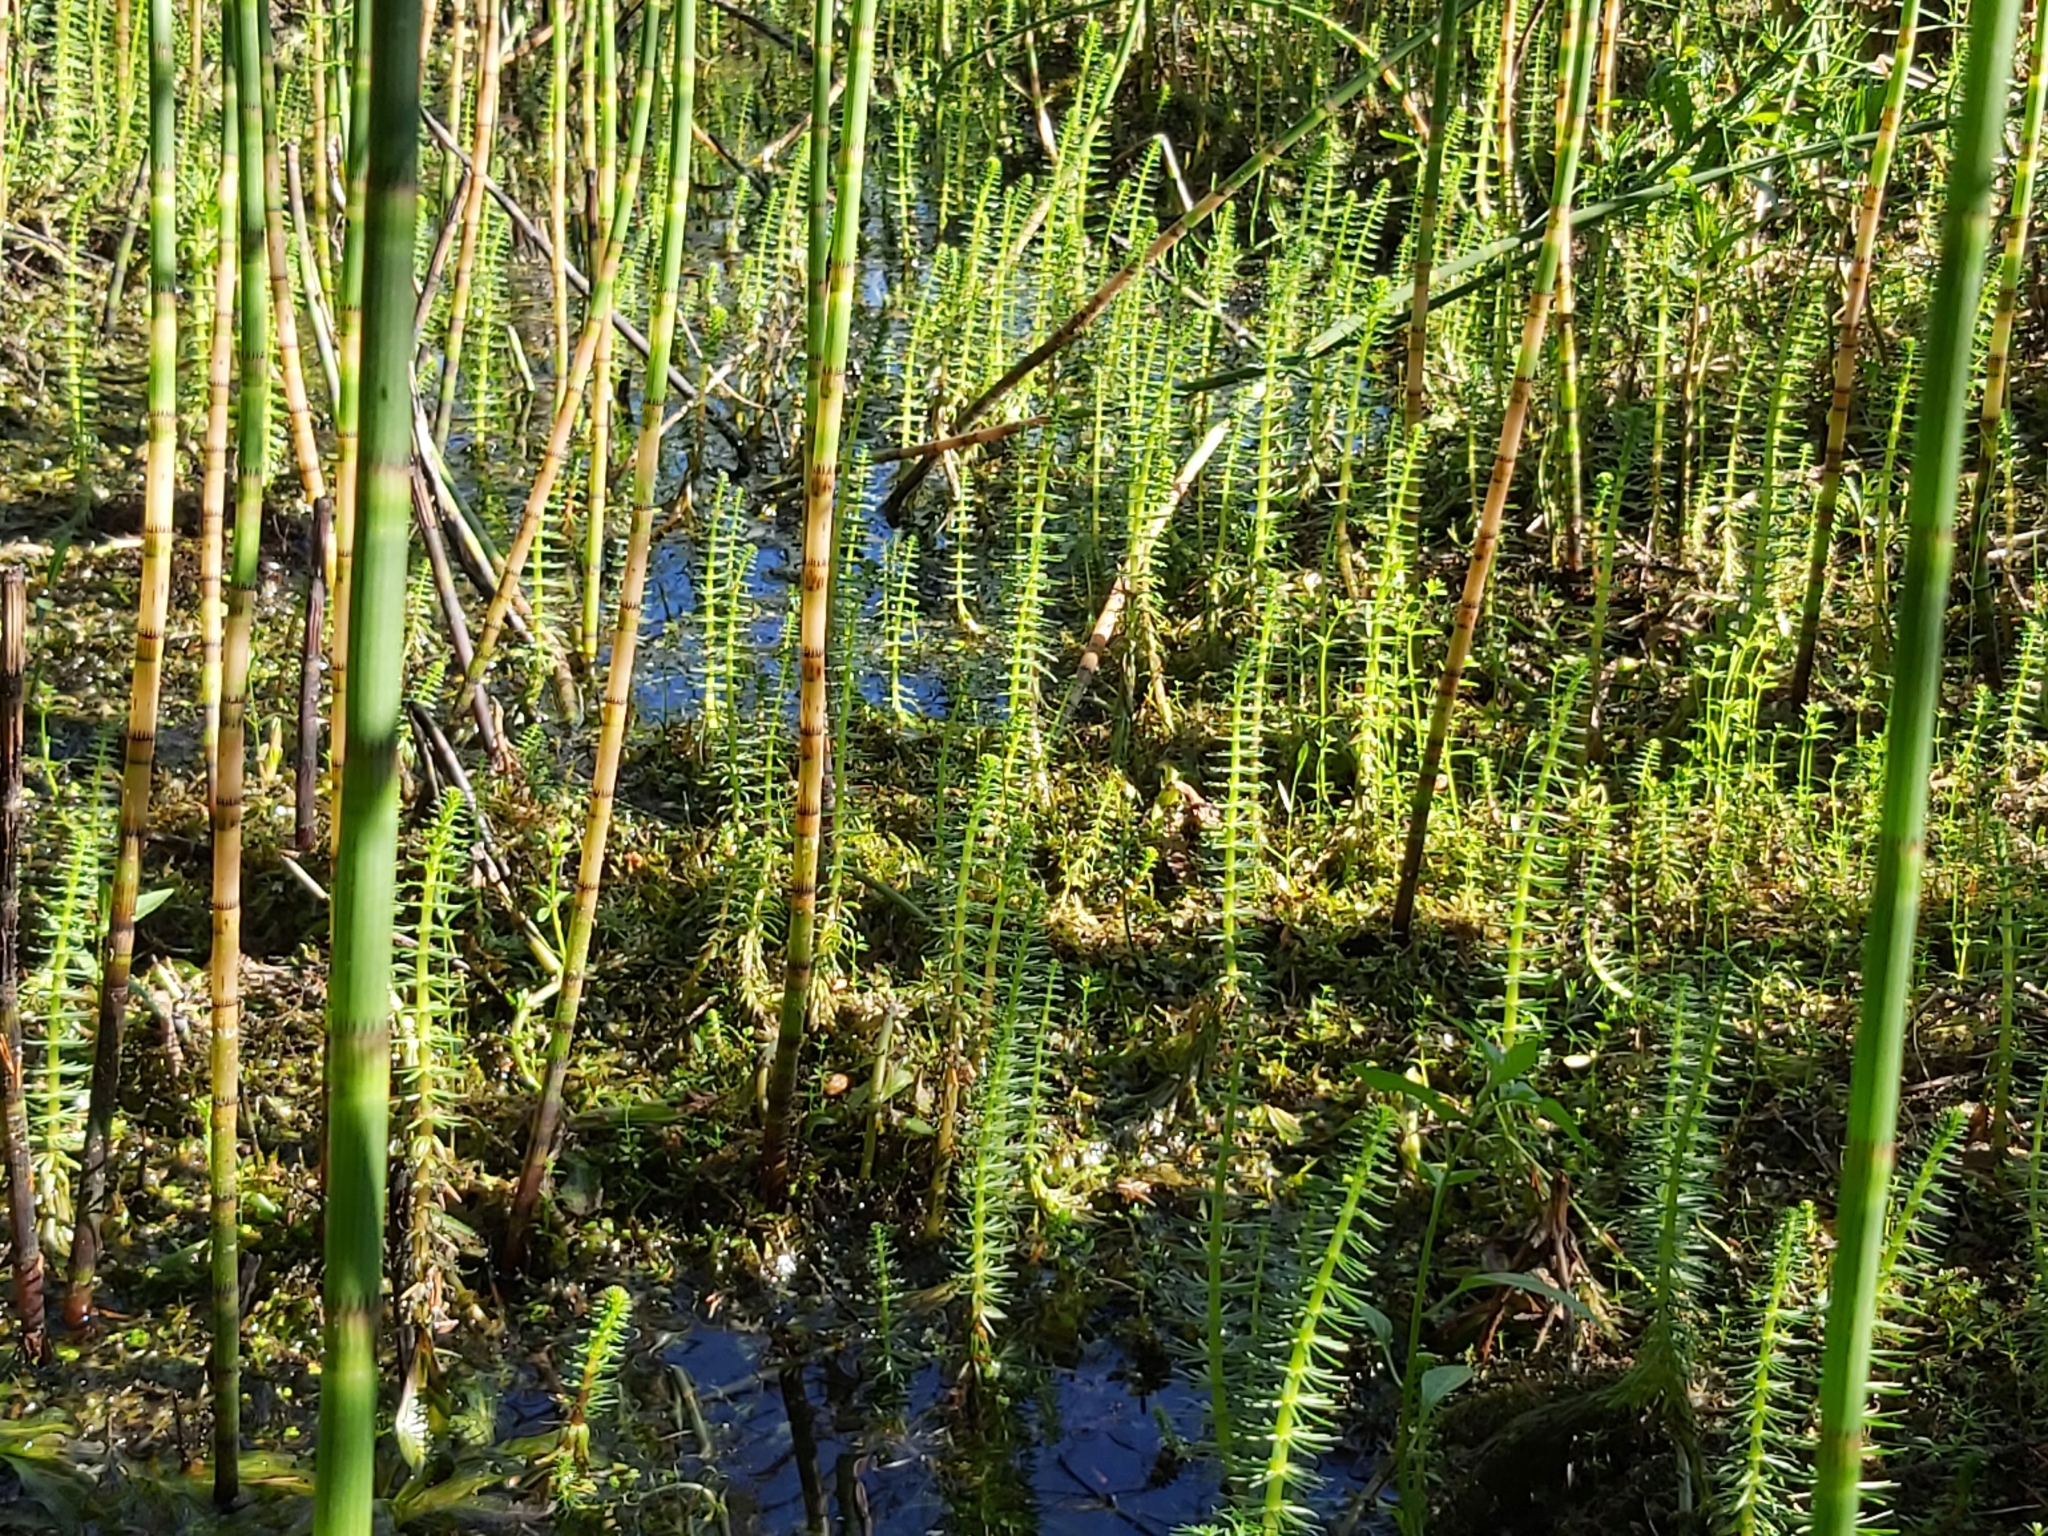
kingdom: Plantae
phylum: Tracheophyta
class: Magnoliopsida
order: Lamiales
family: Plantaginaceae
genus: Hippuris
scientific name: Hippuris vulgaris
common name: Mare's-tail
